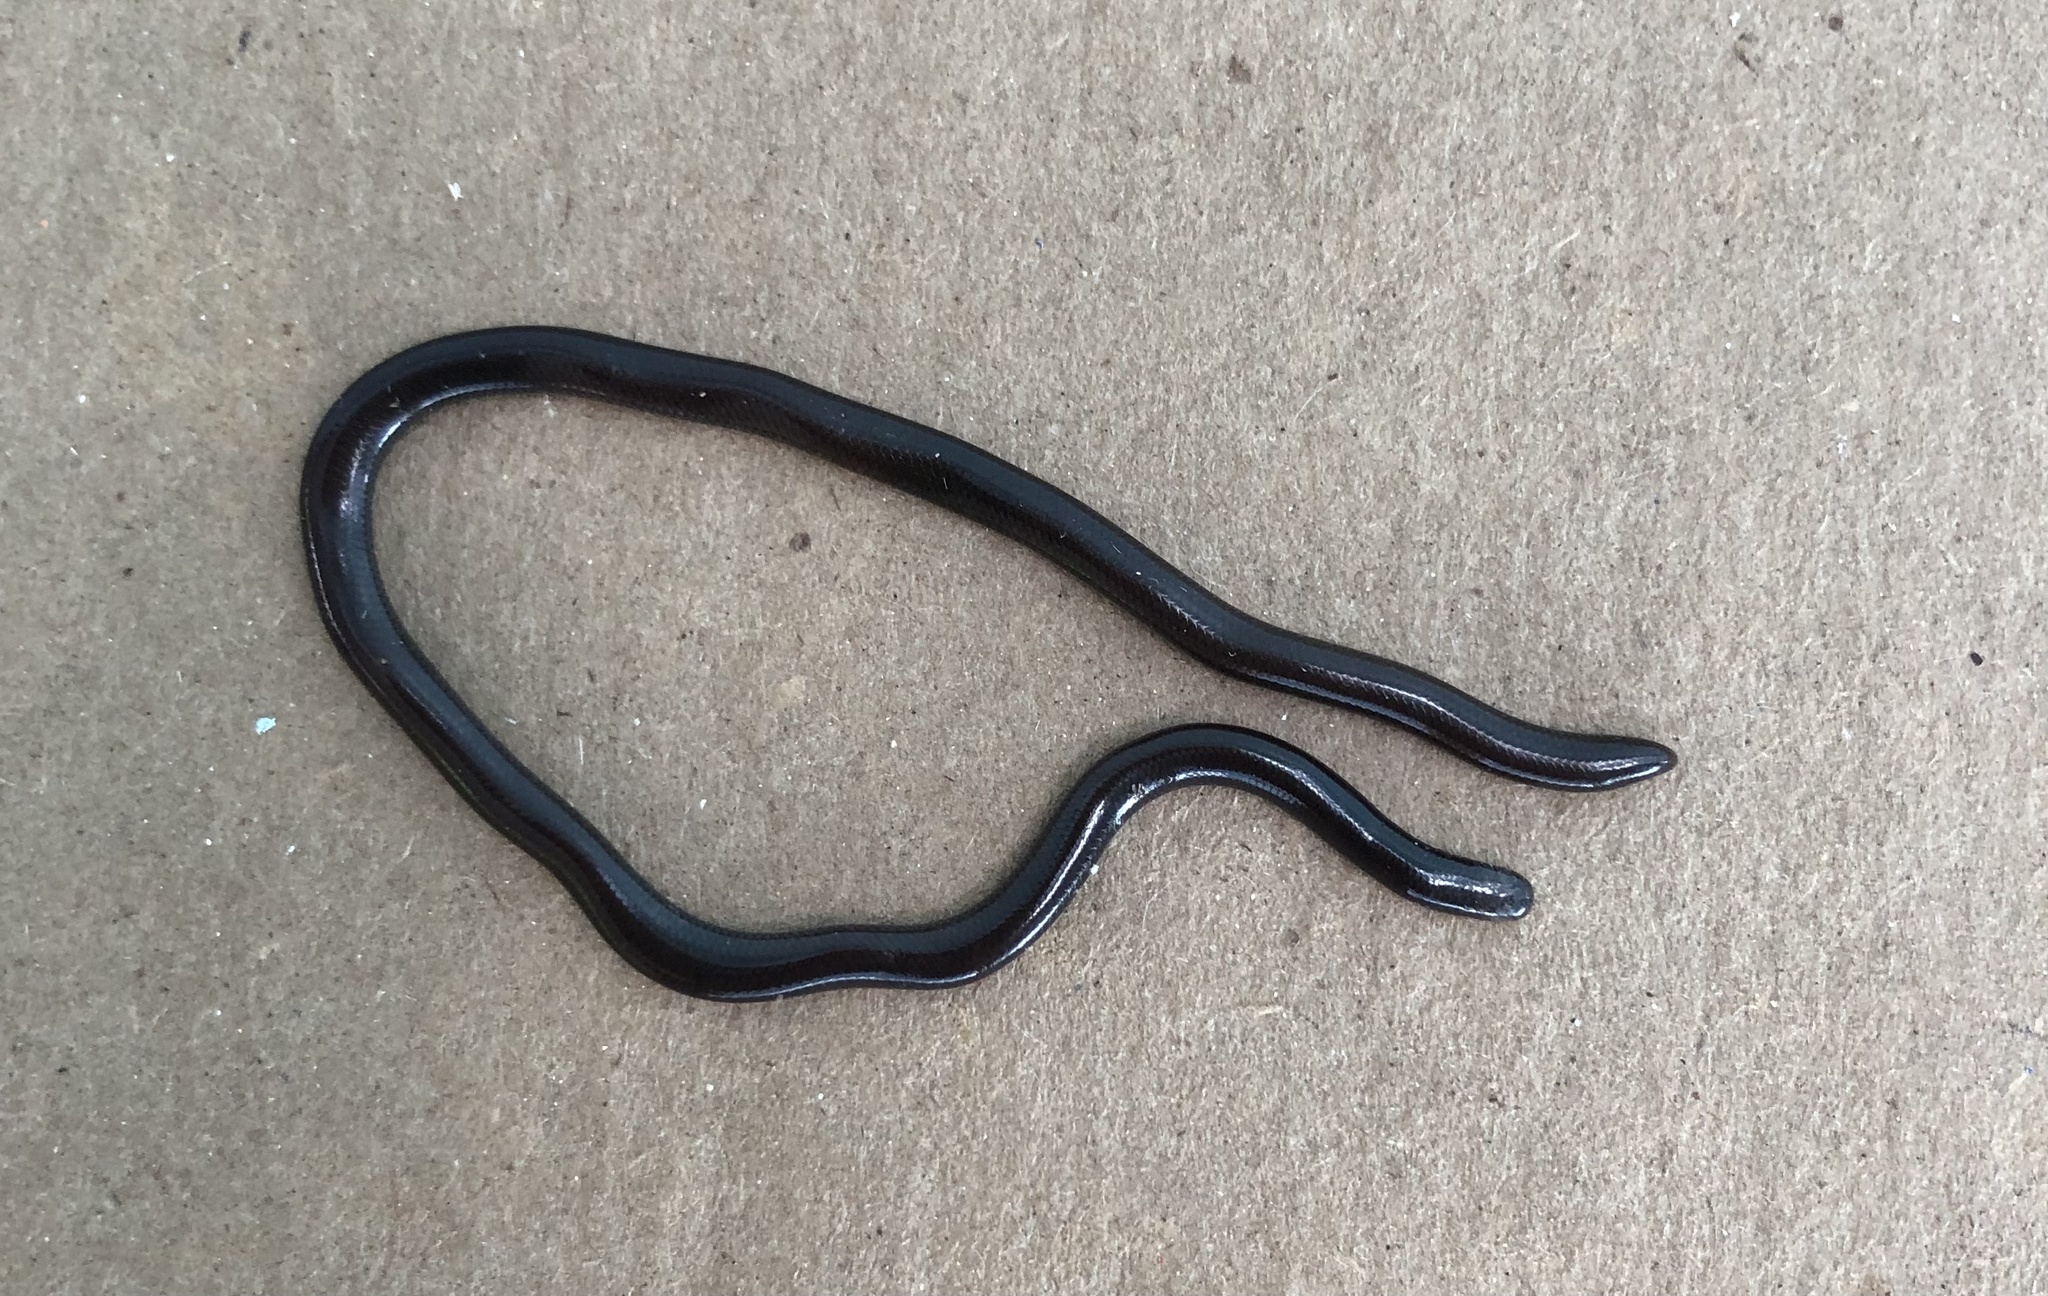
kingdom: Animalia
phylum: Chordata
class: Squamata
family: Typhlopidae
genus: Indotyphlops
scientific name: Indotyphlops braminus
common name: Brahminy blindsnake
